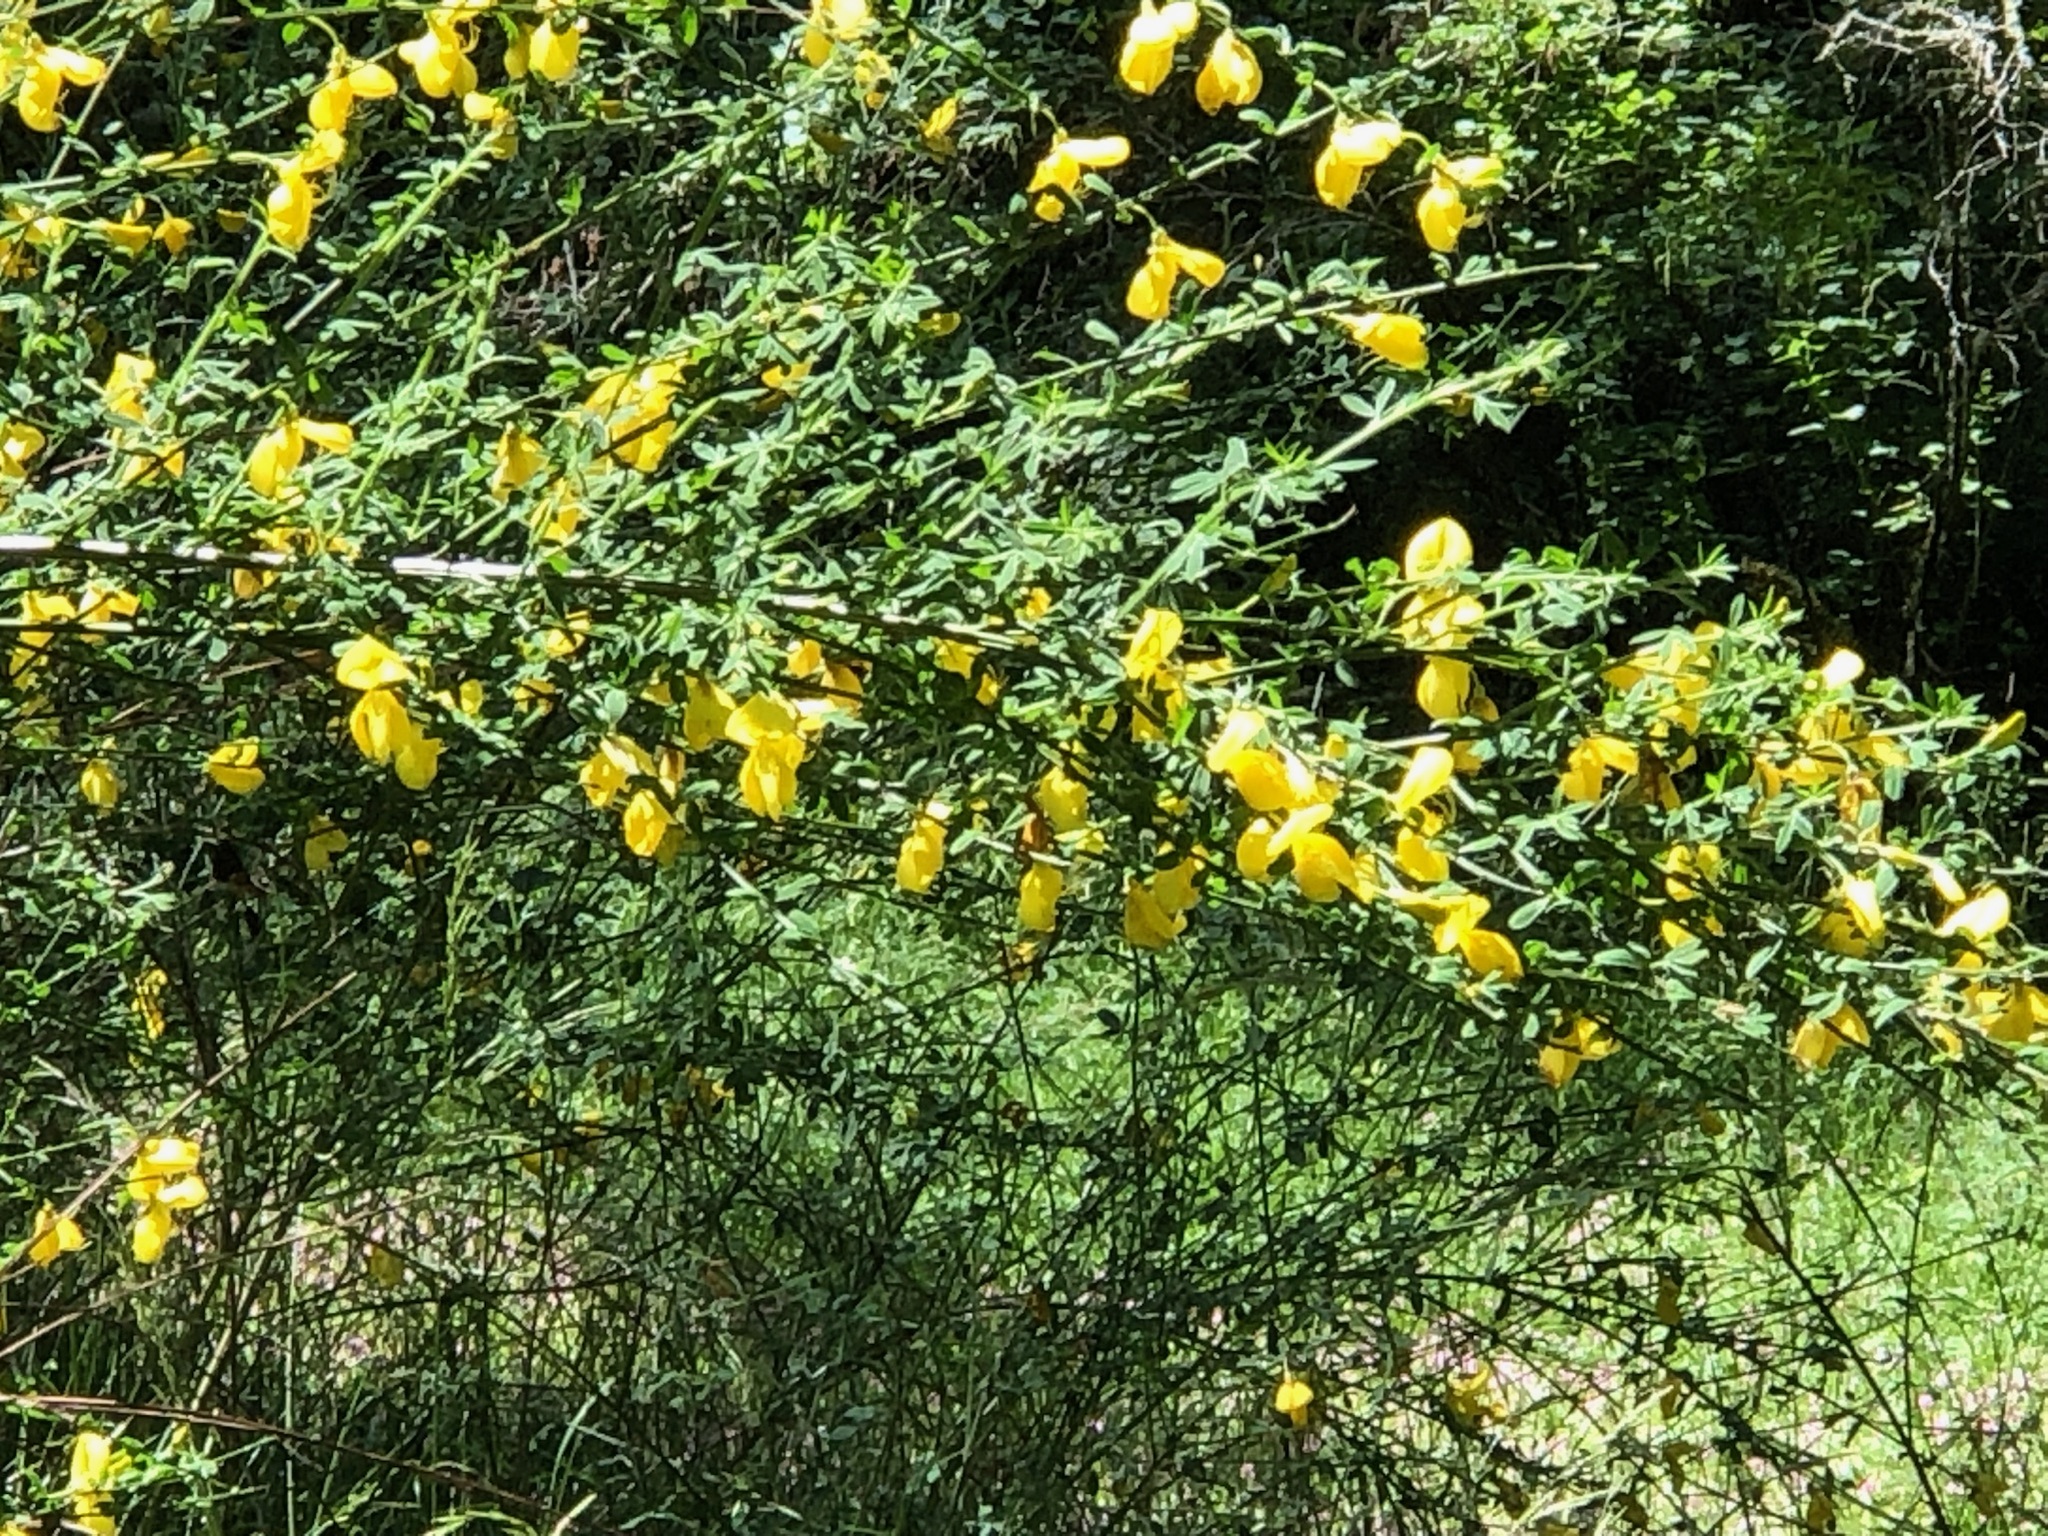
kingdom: Plantae
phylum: Tracheophyta
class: Magnoliopsida
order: Fabales
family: Fabaceae
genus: Cytisus
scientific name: Cytisus scoparius
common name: Scotch broom
